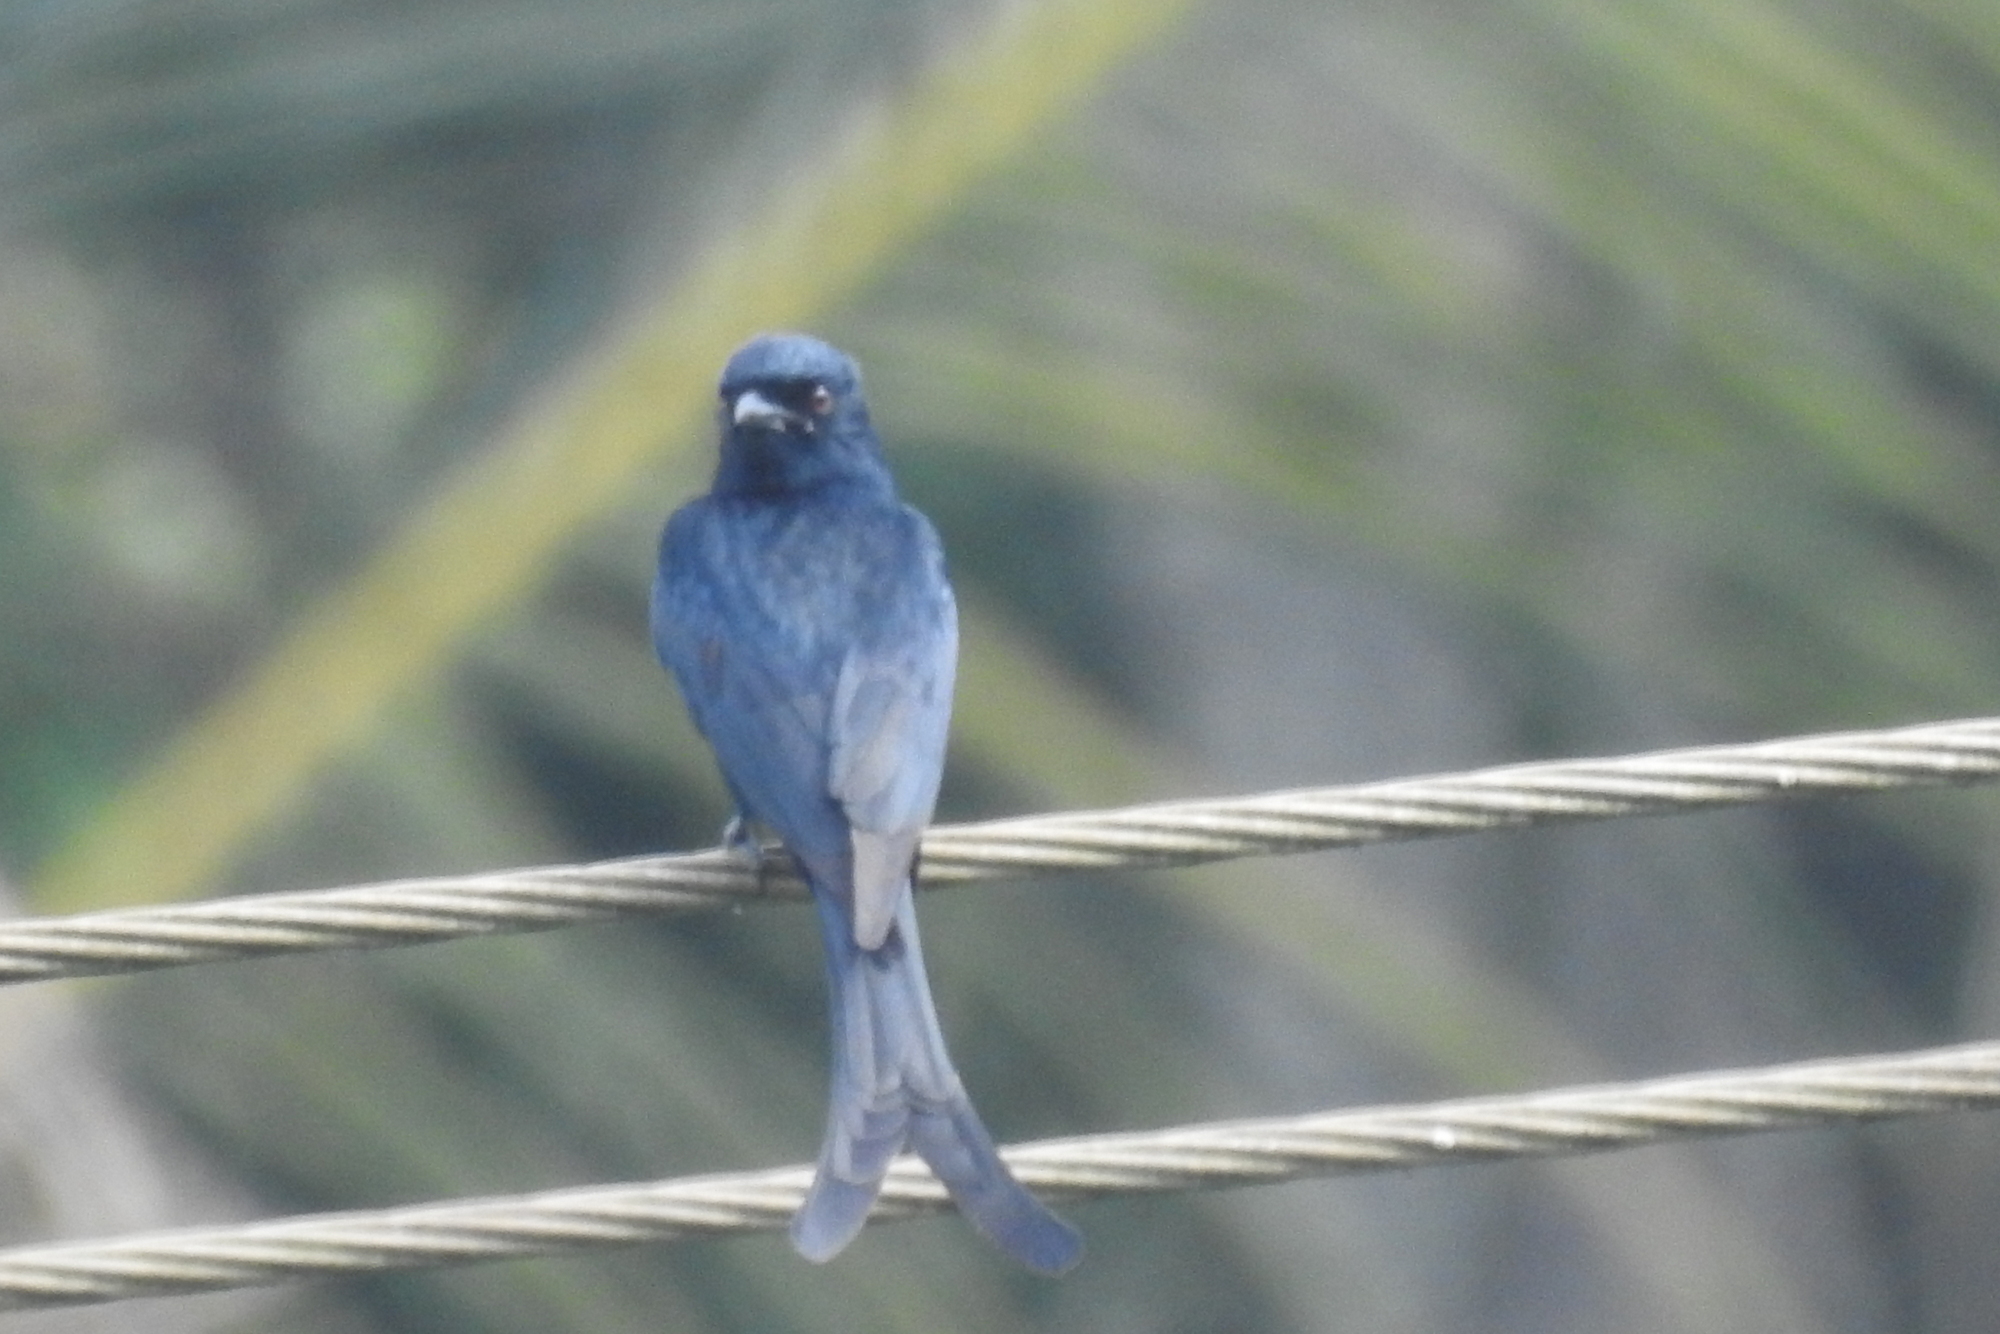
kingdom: Animalia
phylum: Chordata
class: Aves
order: Passeriformes
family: Dicruridae
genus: Dicrurus
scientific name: Dicrurus macrocercus
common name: Black drongo
